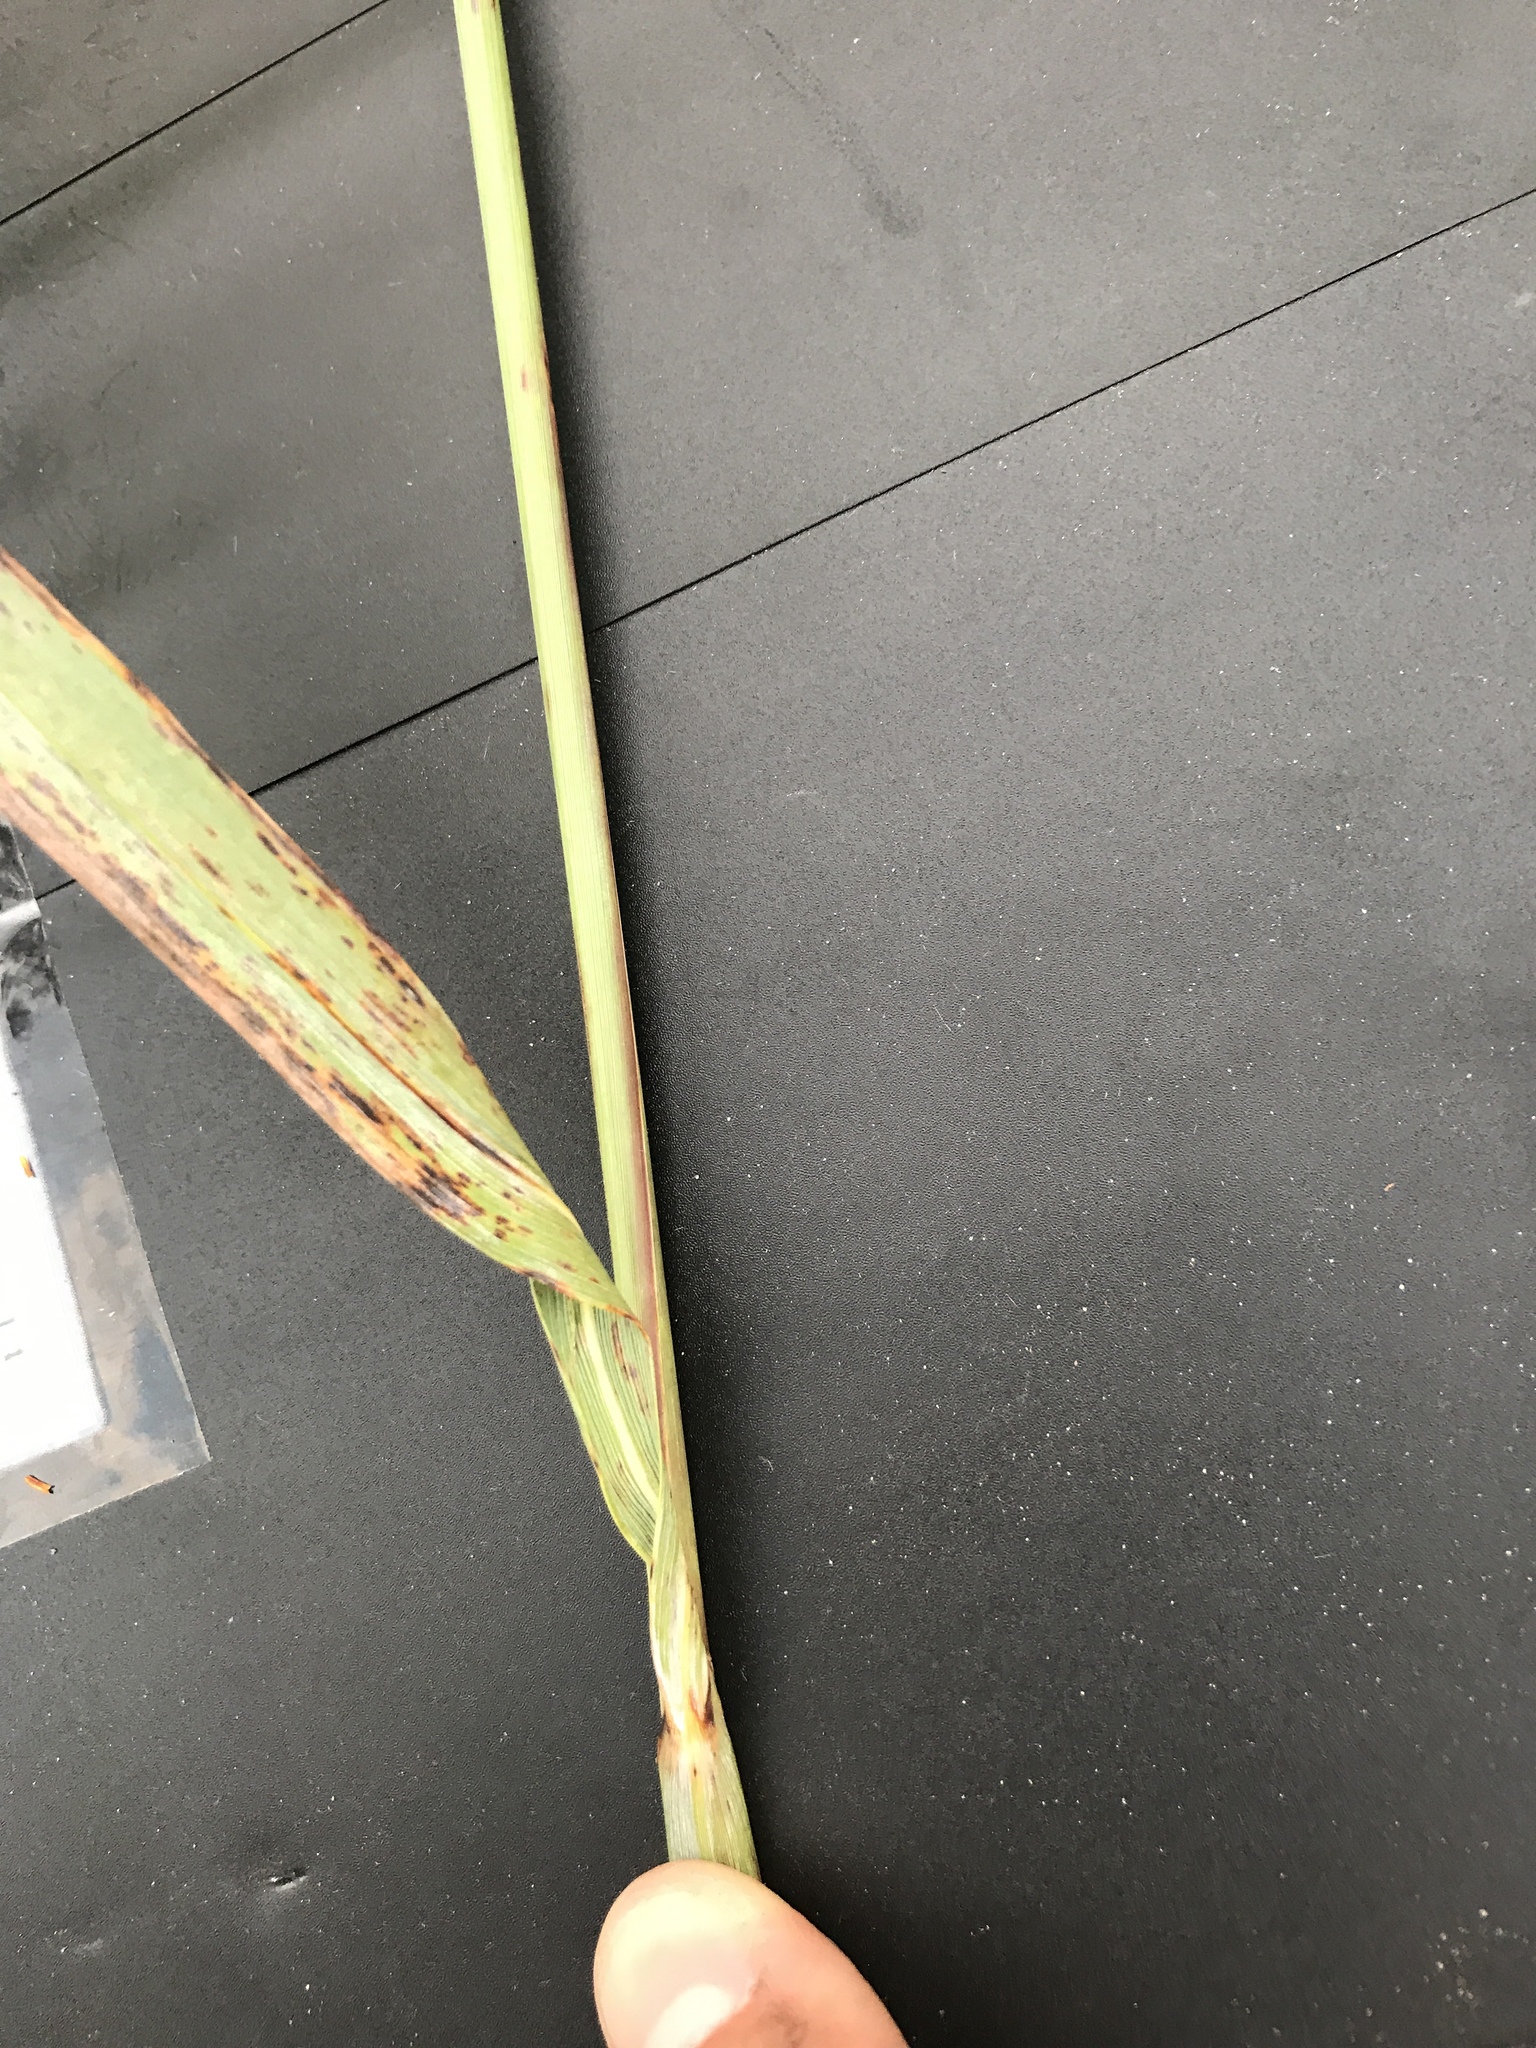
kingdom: Plantae
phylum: Tracheophyta
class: Liliopsida
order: Poales
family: Poaceae
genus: Sorghastrum
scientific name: Sorghastrum nutans
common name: Indian grass
